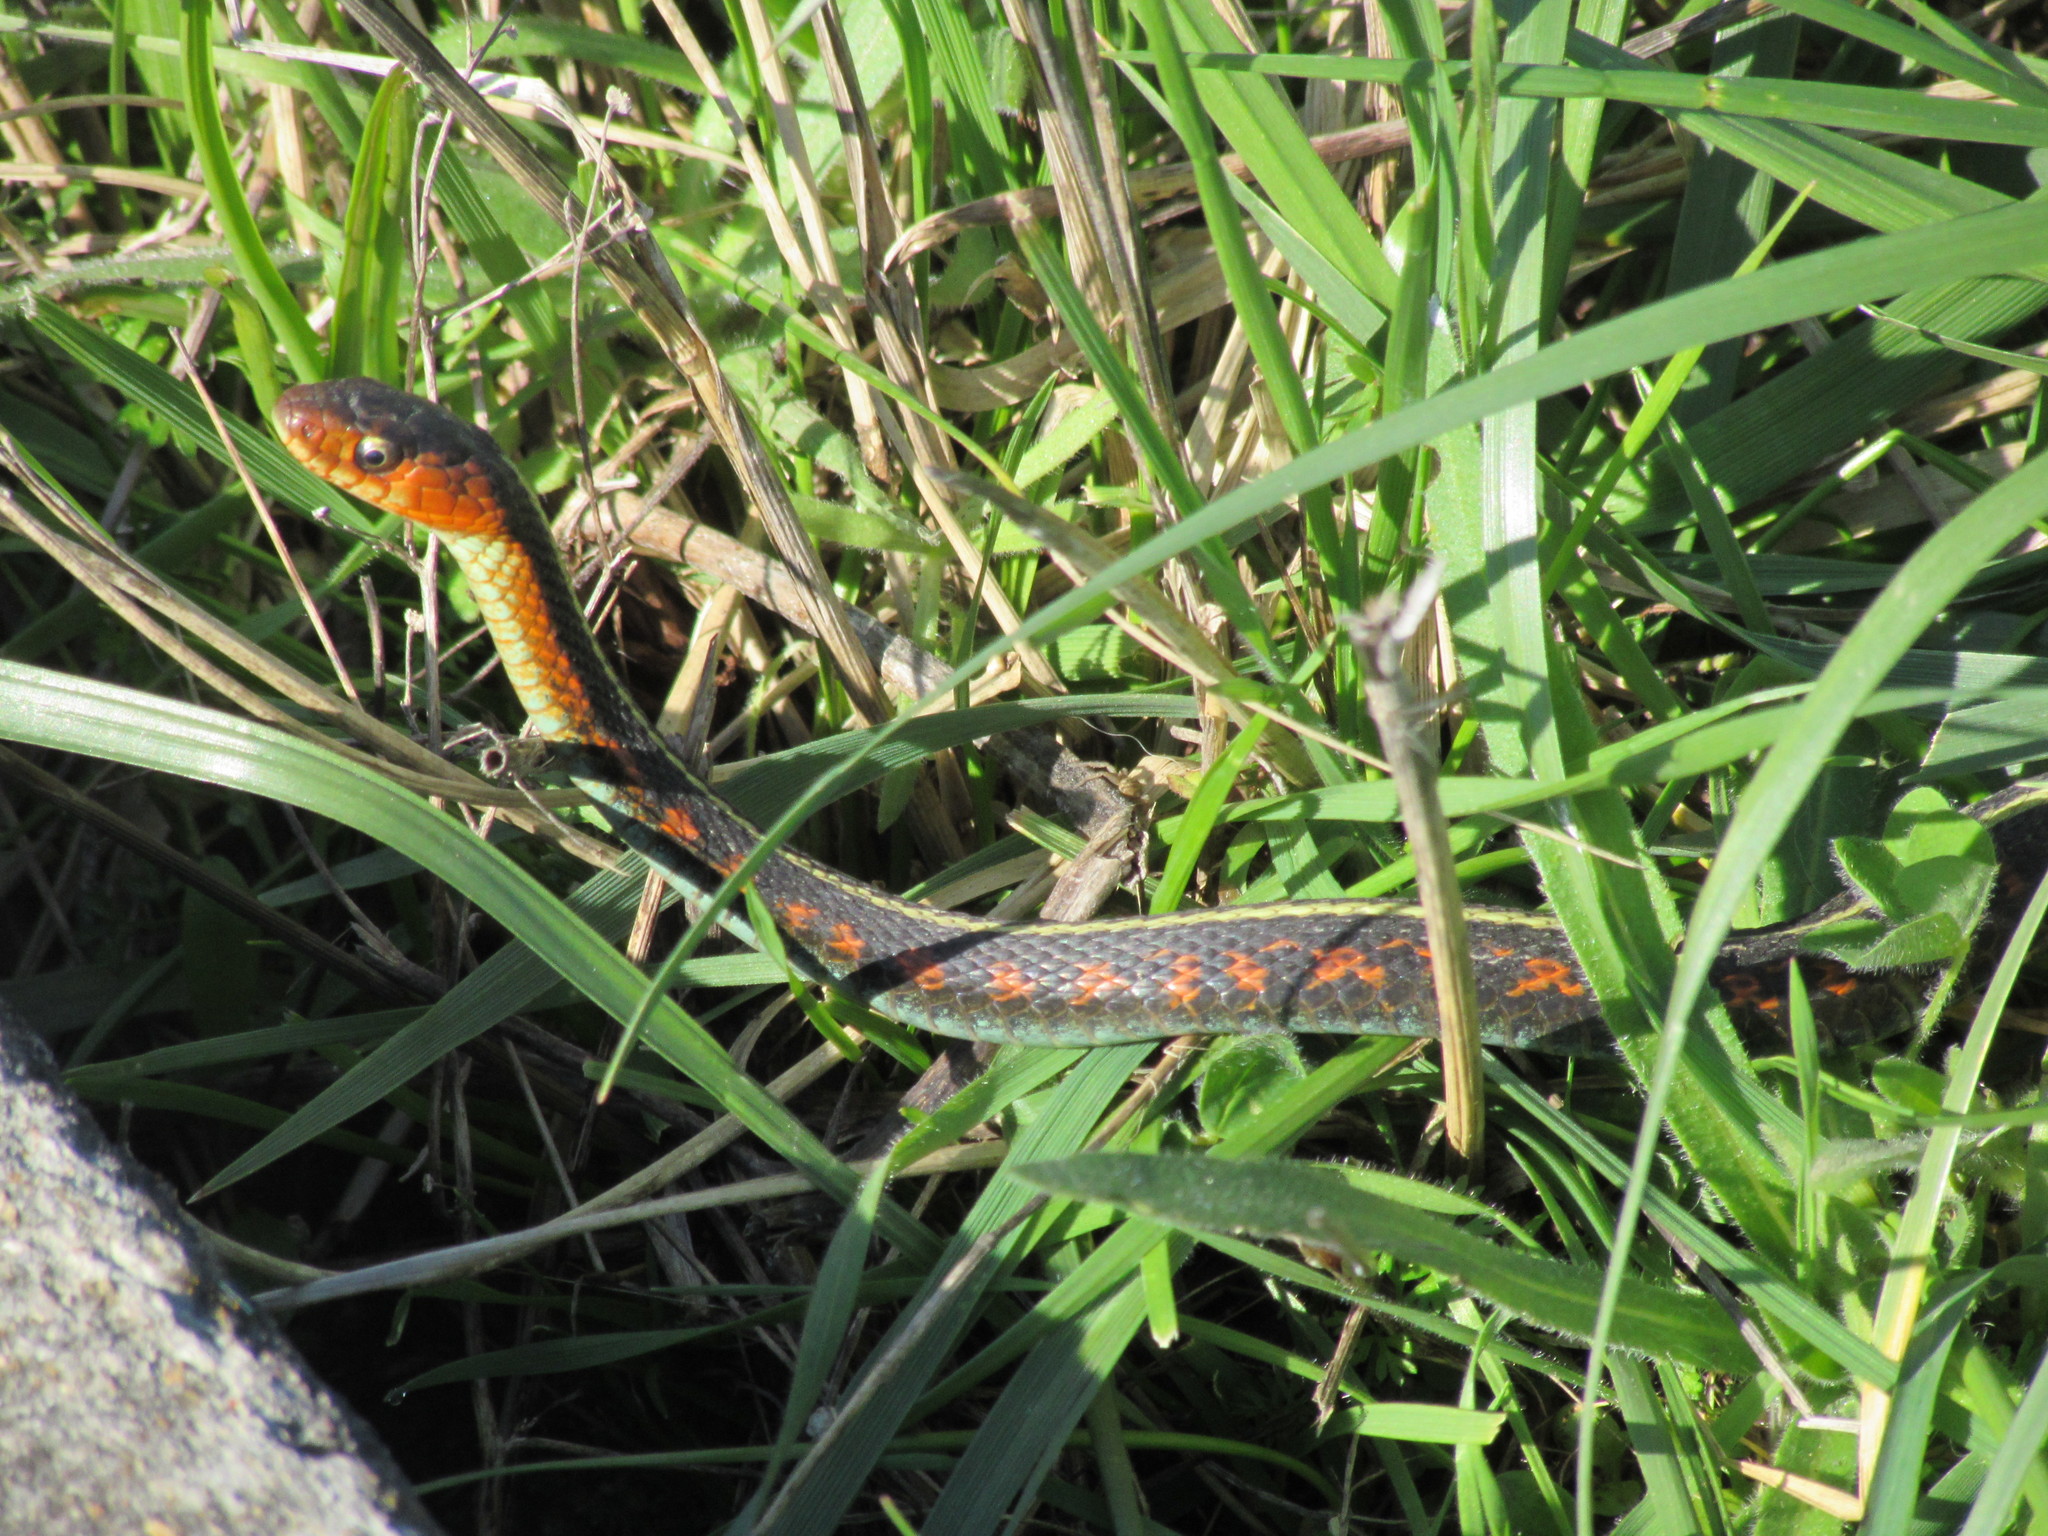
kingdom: Animalia
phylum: Chordata
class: Squamata
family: Colubridae
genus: Thamnophis
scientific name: Thamnophis sirtalis
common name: Common garter snake
